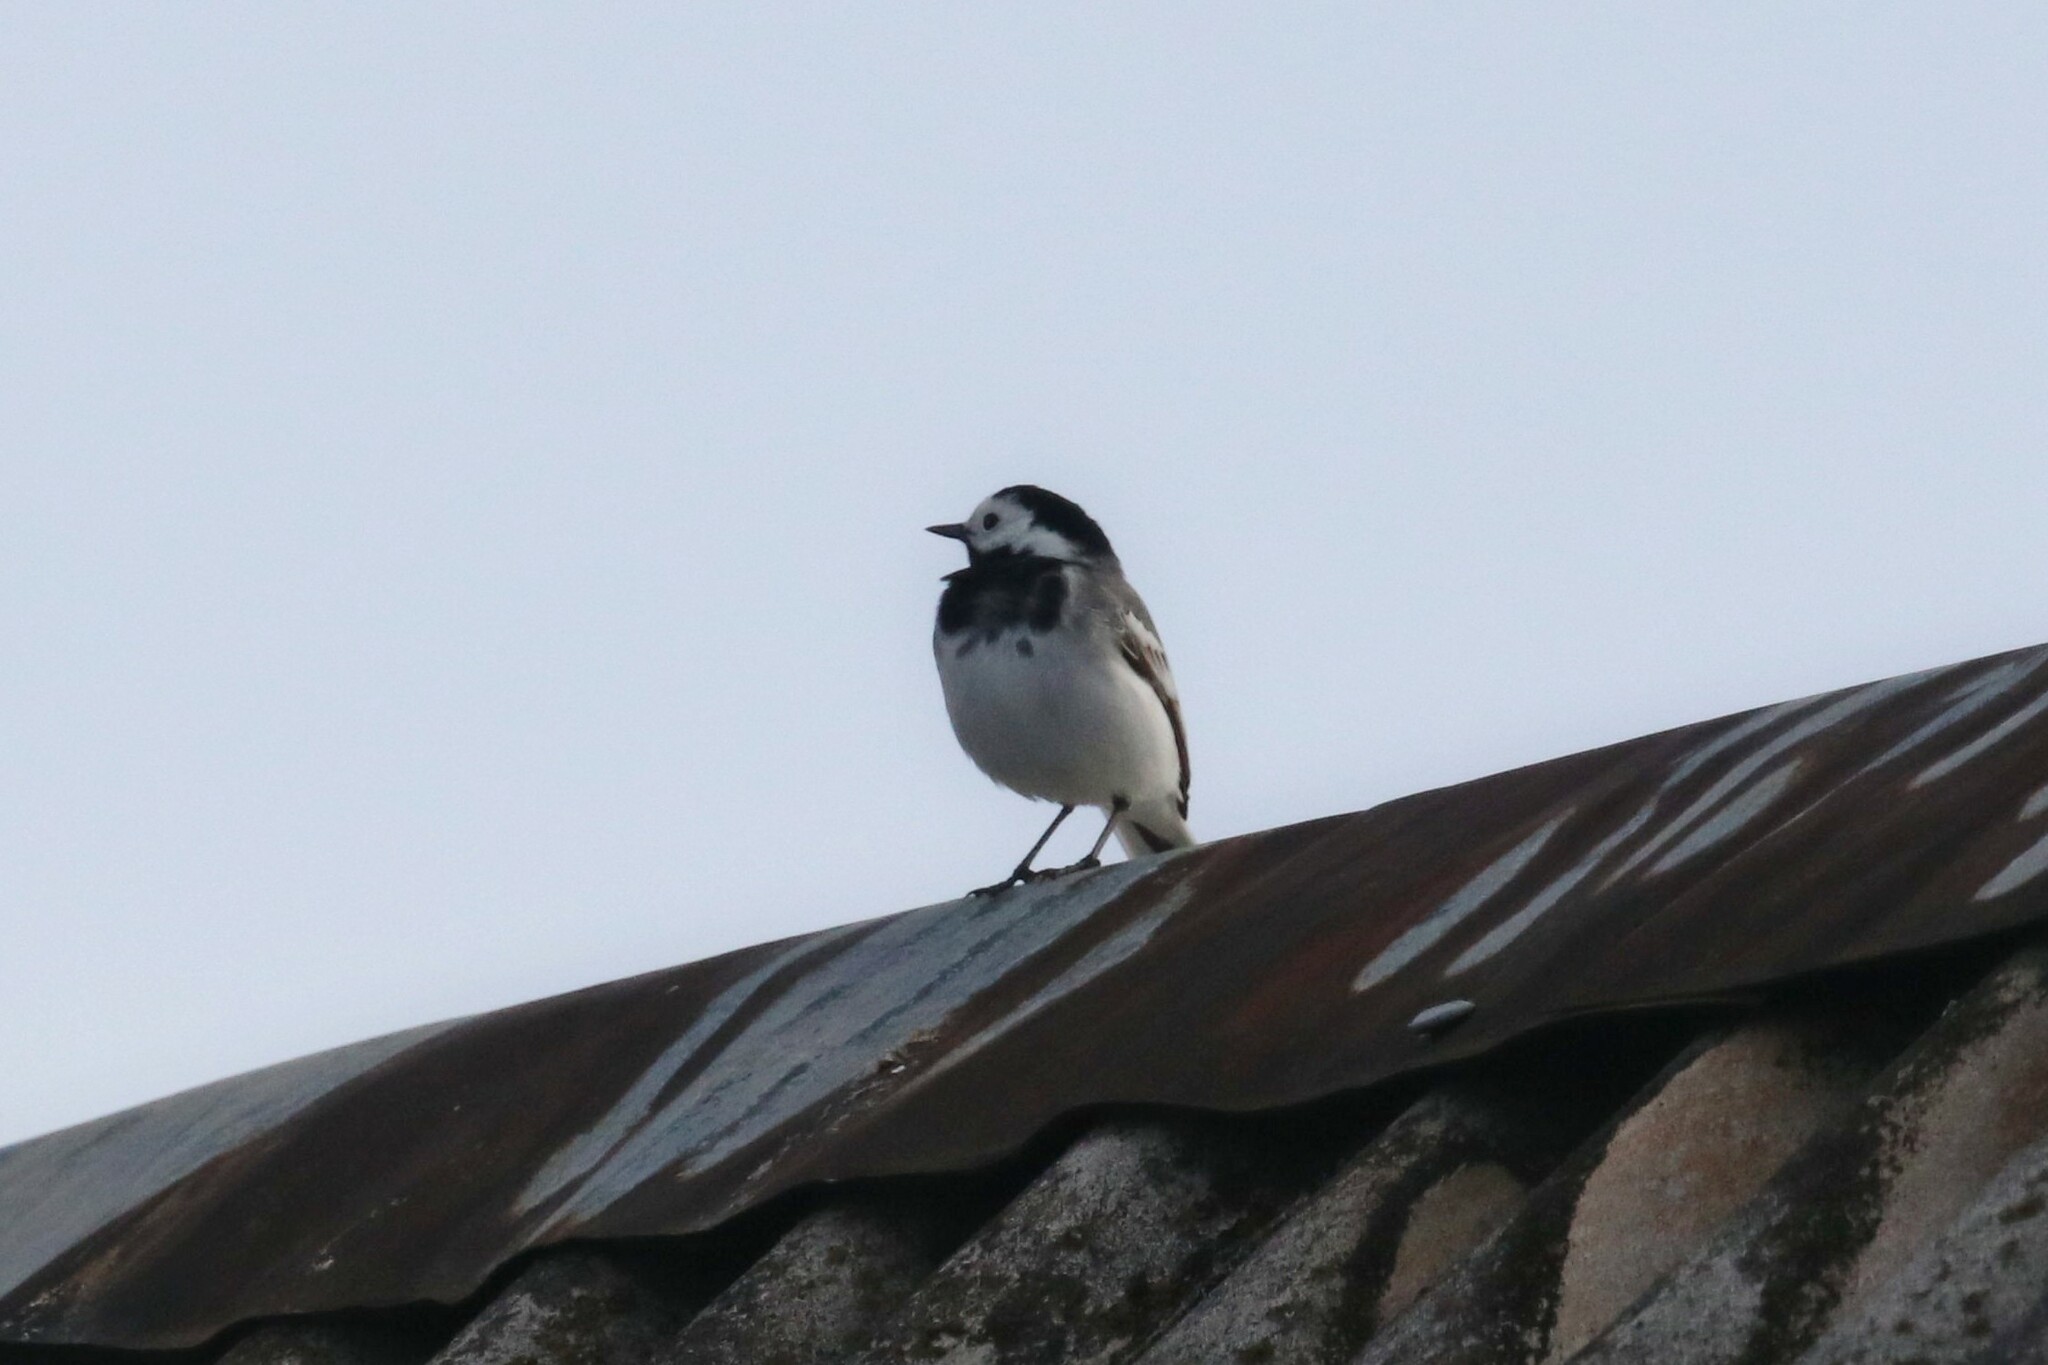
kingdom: Animalia
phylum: Chordata
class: Aves
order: Passeriformes
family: Motacillidae
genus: Motacilla
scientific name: Motacilla alba
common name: White wagtail
